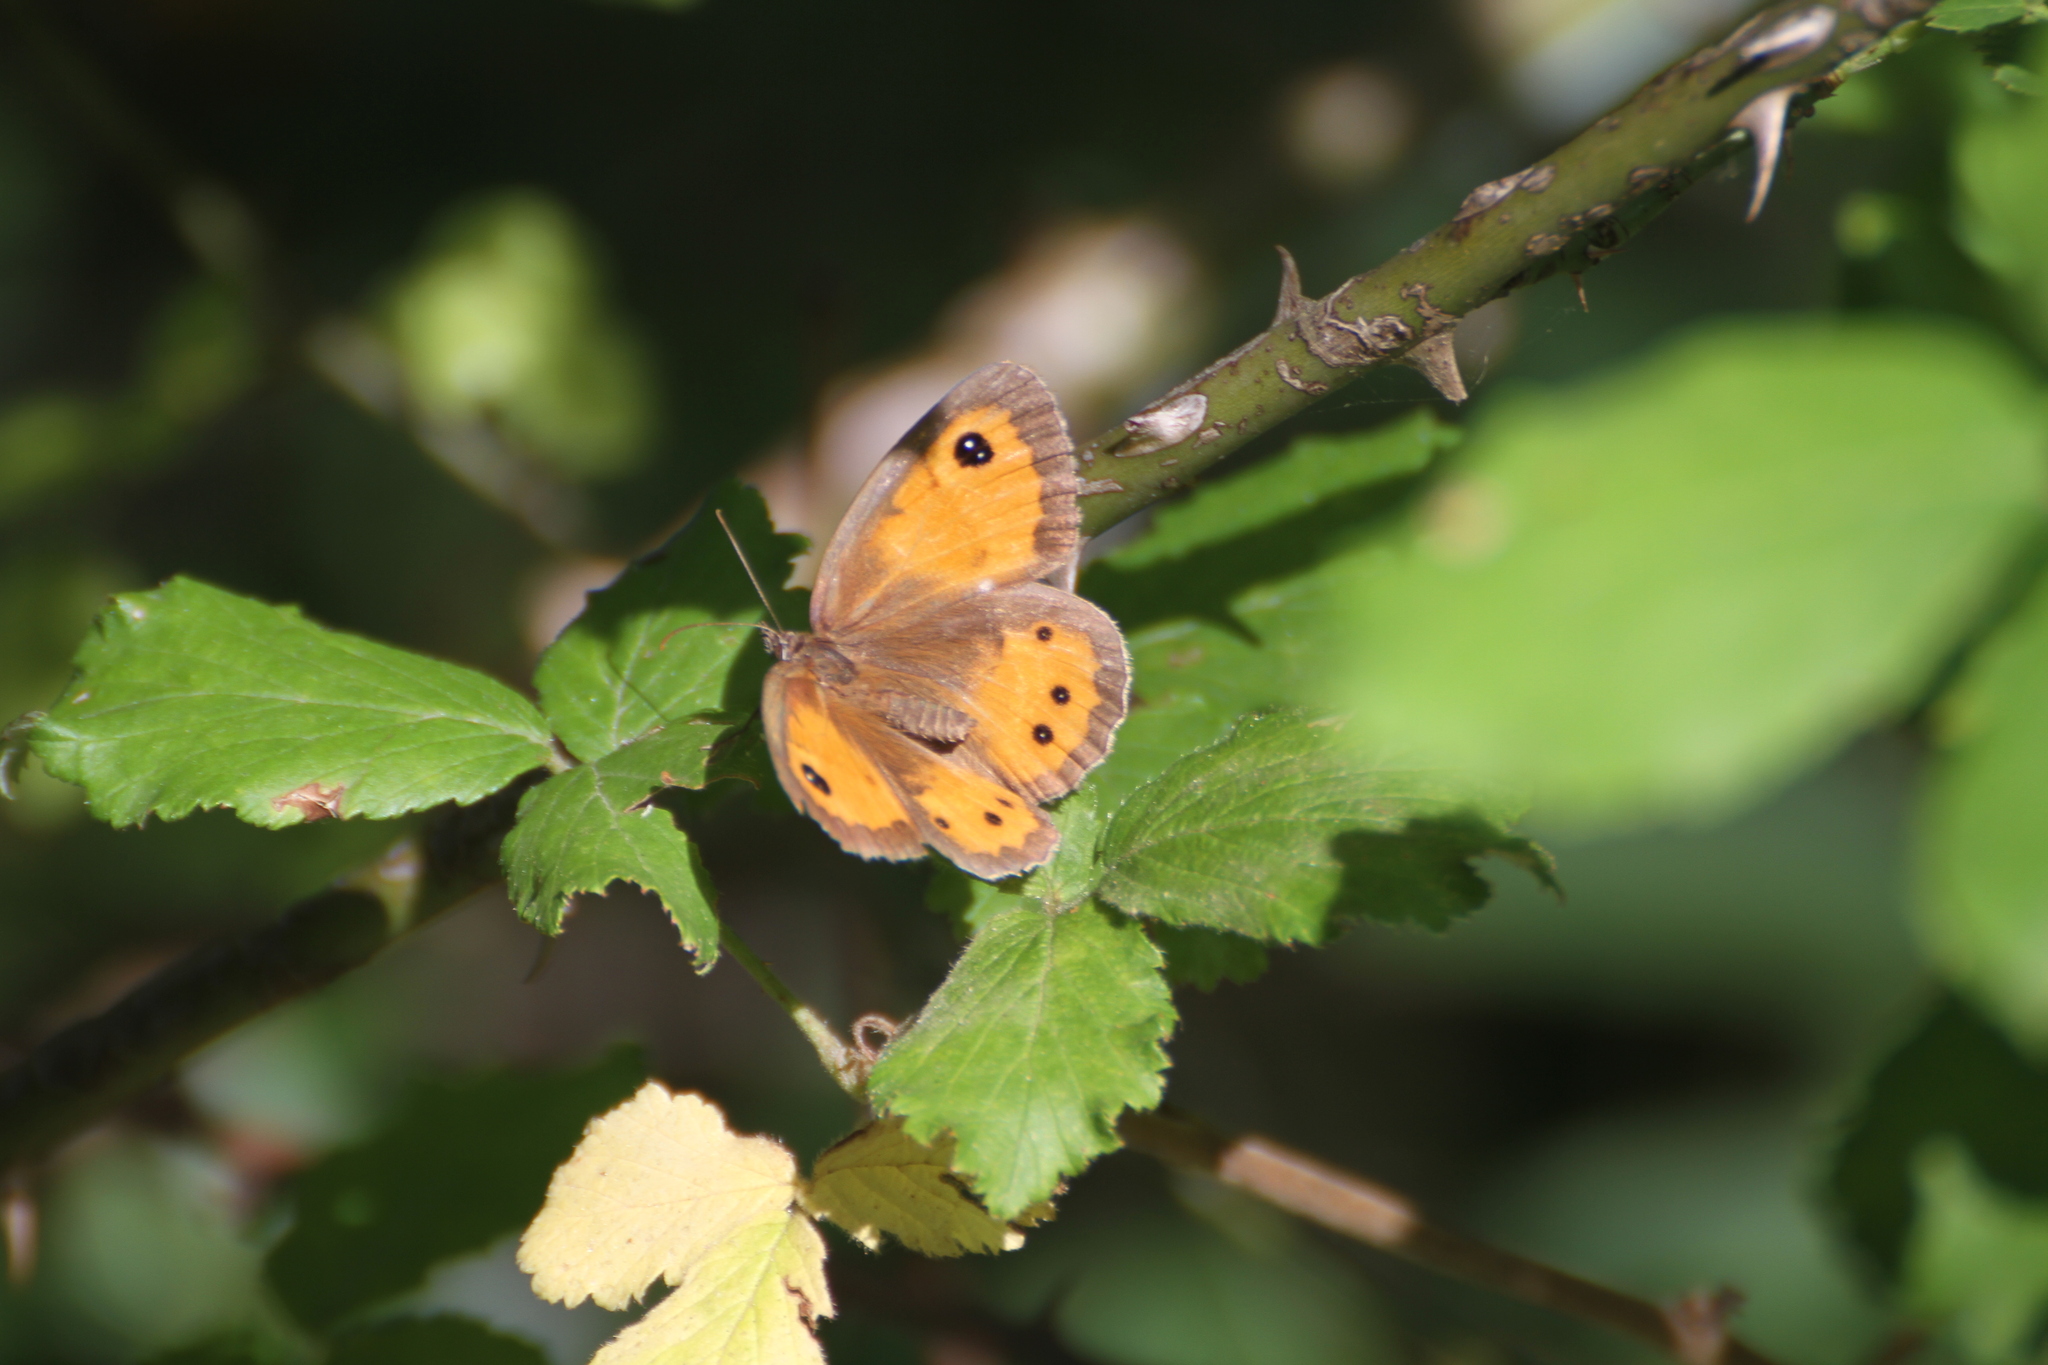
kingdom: Animalia
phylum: Arthropoda
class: Insecta
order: Lepidoptera
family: Nymphalidae
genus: Pyronia
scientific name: Pyronia bathseba
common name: Spanish gatekeeper
